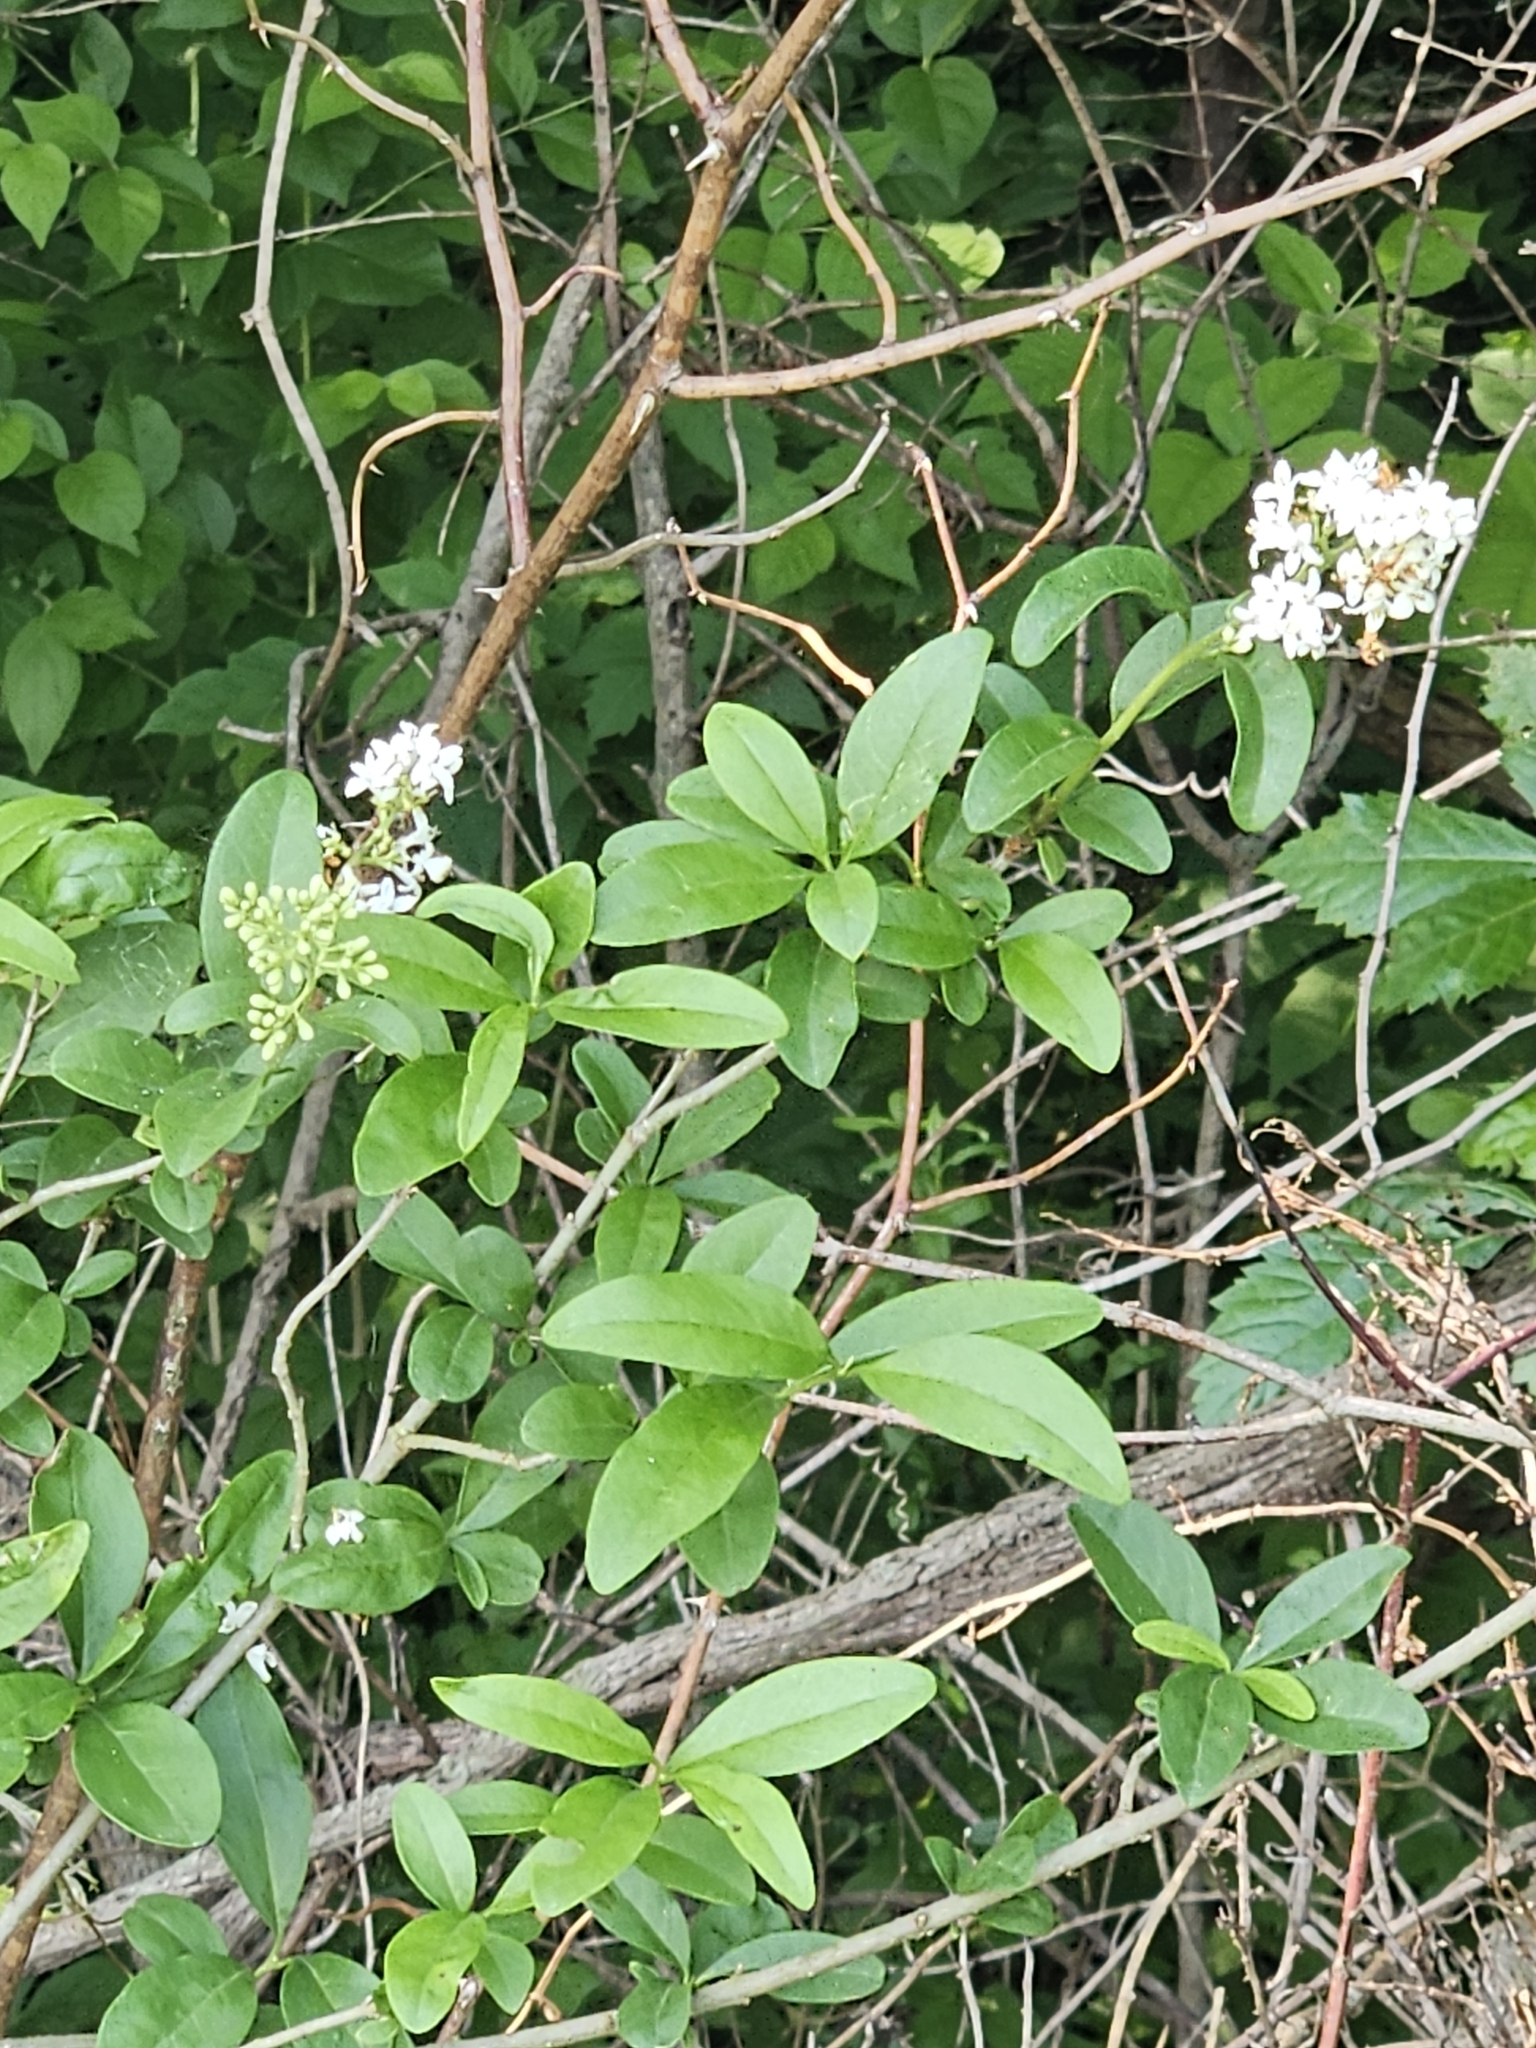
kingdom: Plantae
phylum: Tracheophyta
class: Magnoliopsida
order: Lamiales
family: Oleaceae
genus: Ligustrum
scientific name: Ligustrum vulgare
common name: Wild privet
